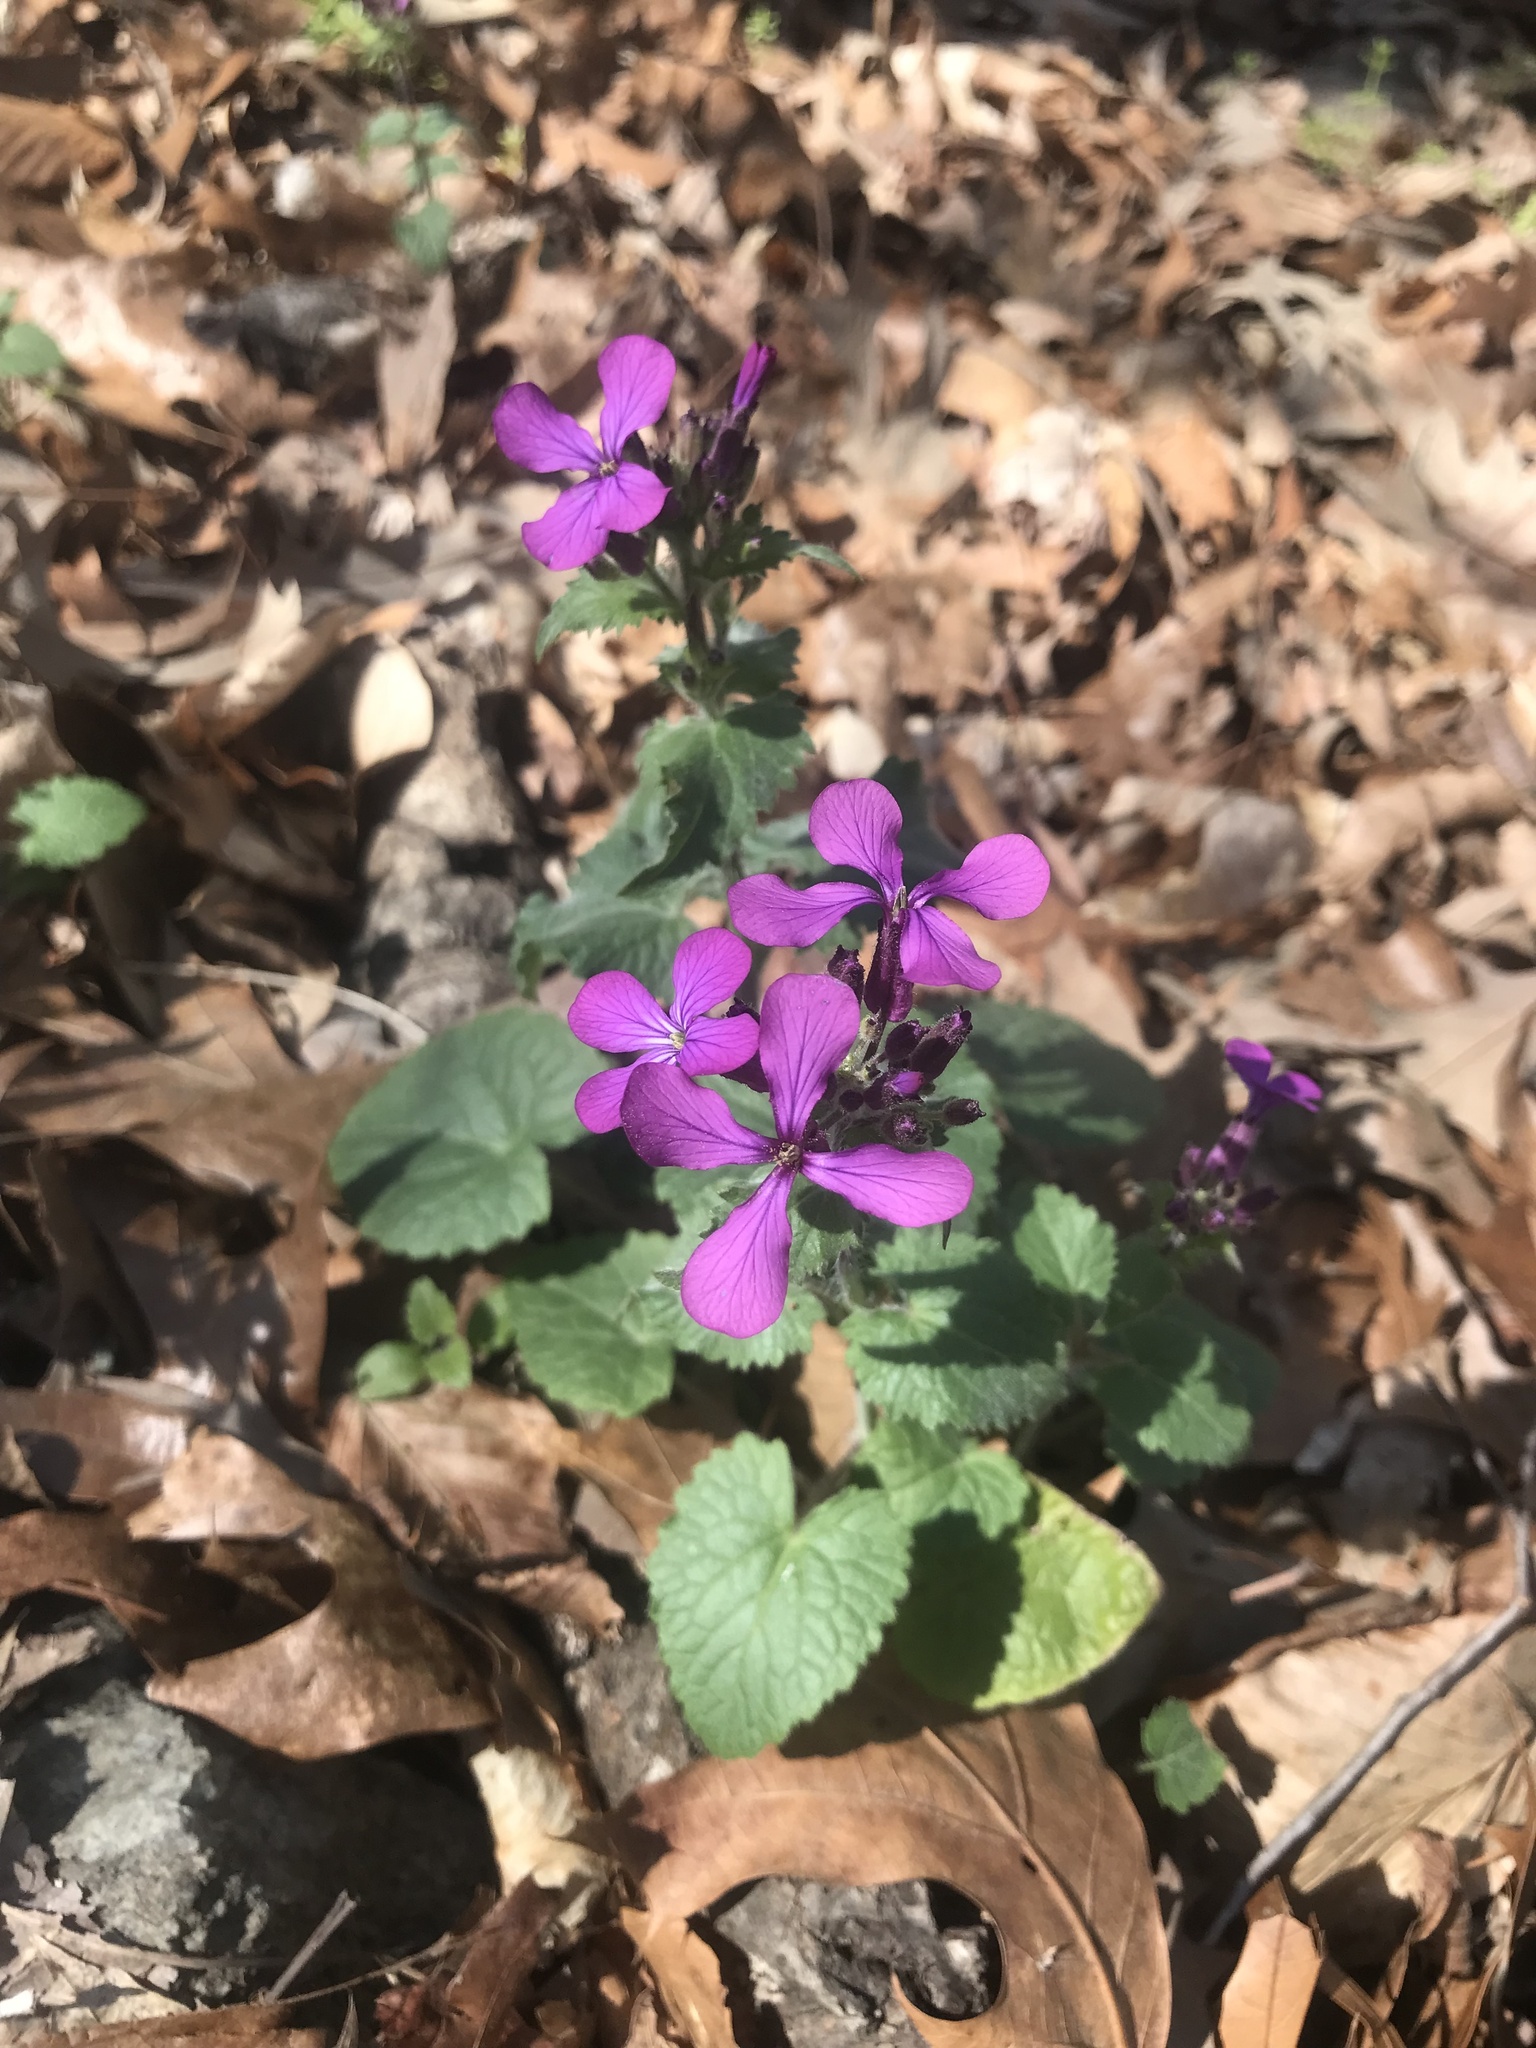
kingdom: Plantae
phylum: Tracheophyta
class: Magnoliopsida
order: Brassicales
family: Brassicaceae
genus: Lunaria
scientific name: Lunaria annua
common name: Honesty
